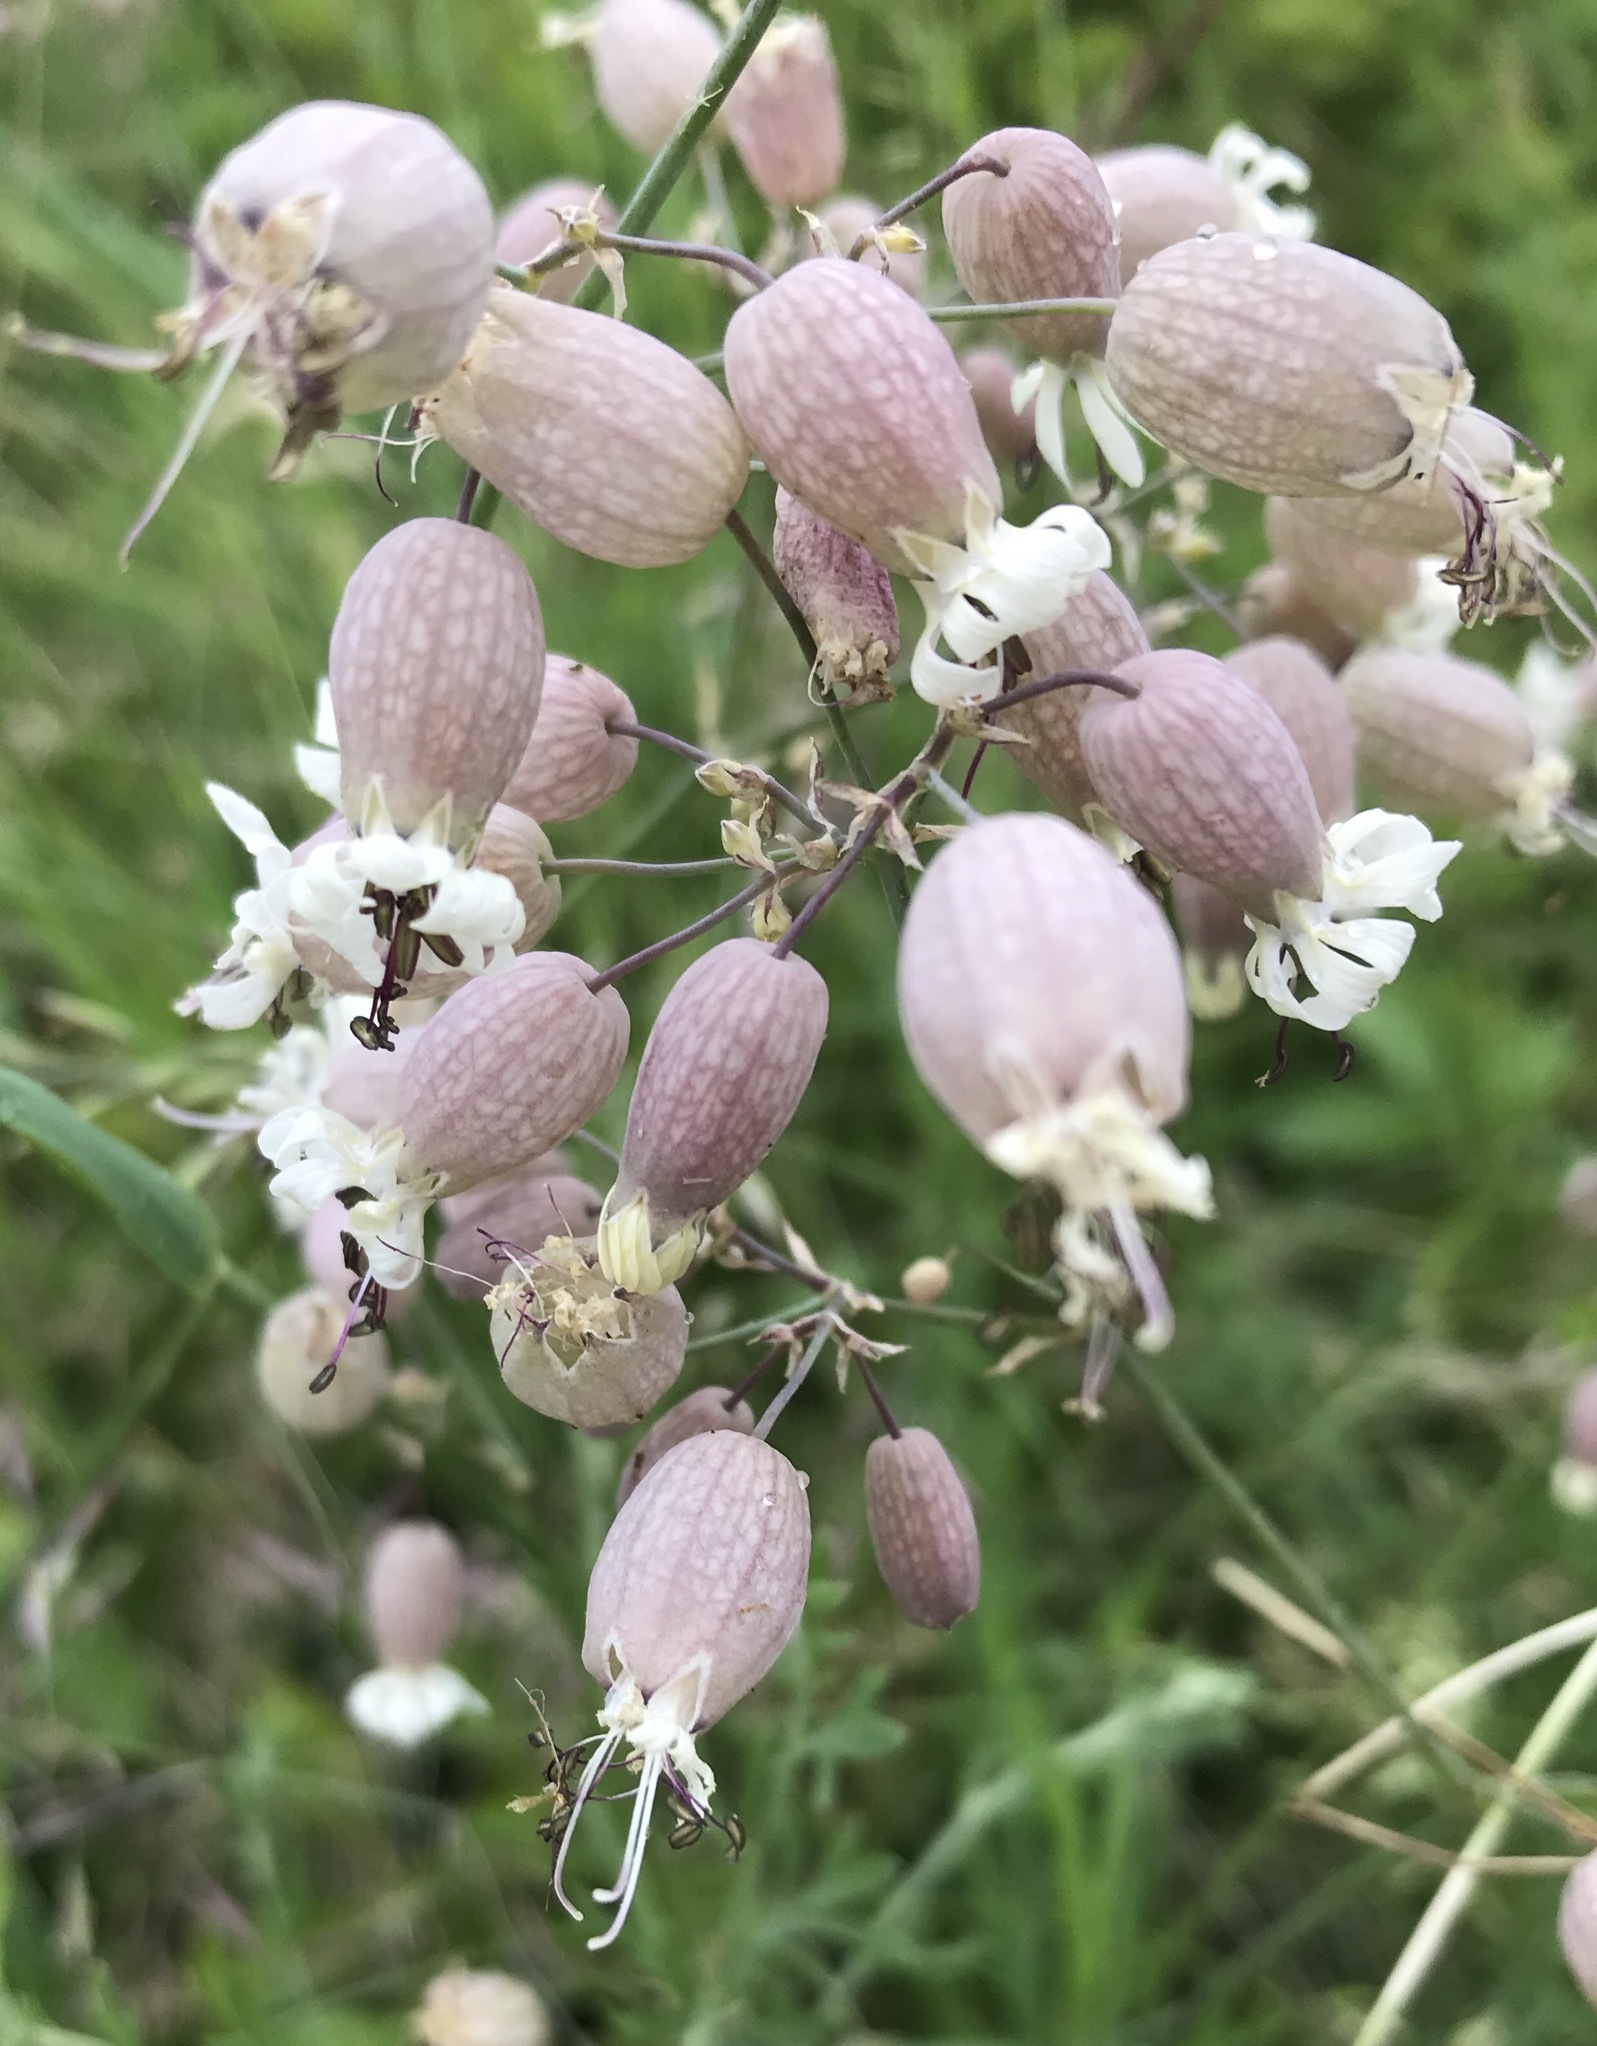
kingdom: Plantae
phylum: Tracheophyta
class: Magnoliopsida
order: Caryophyllales
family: Caryophyllaceae
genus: Silene
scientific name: Silene vulgaris
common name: Bladder campion
